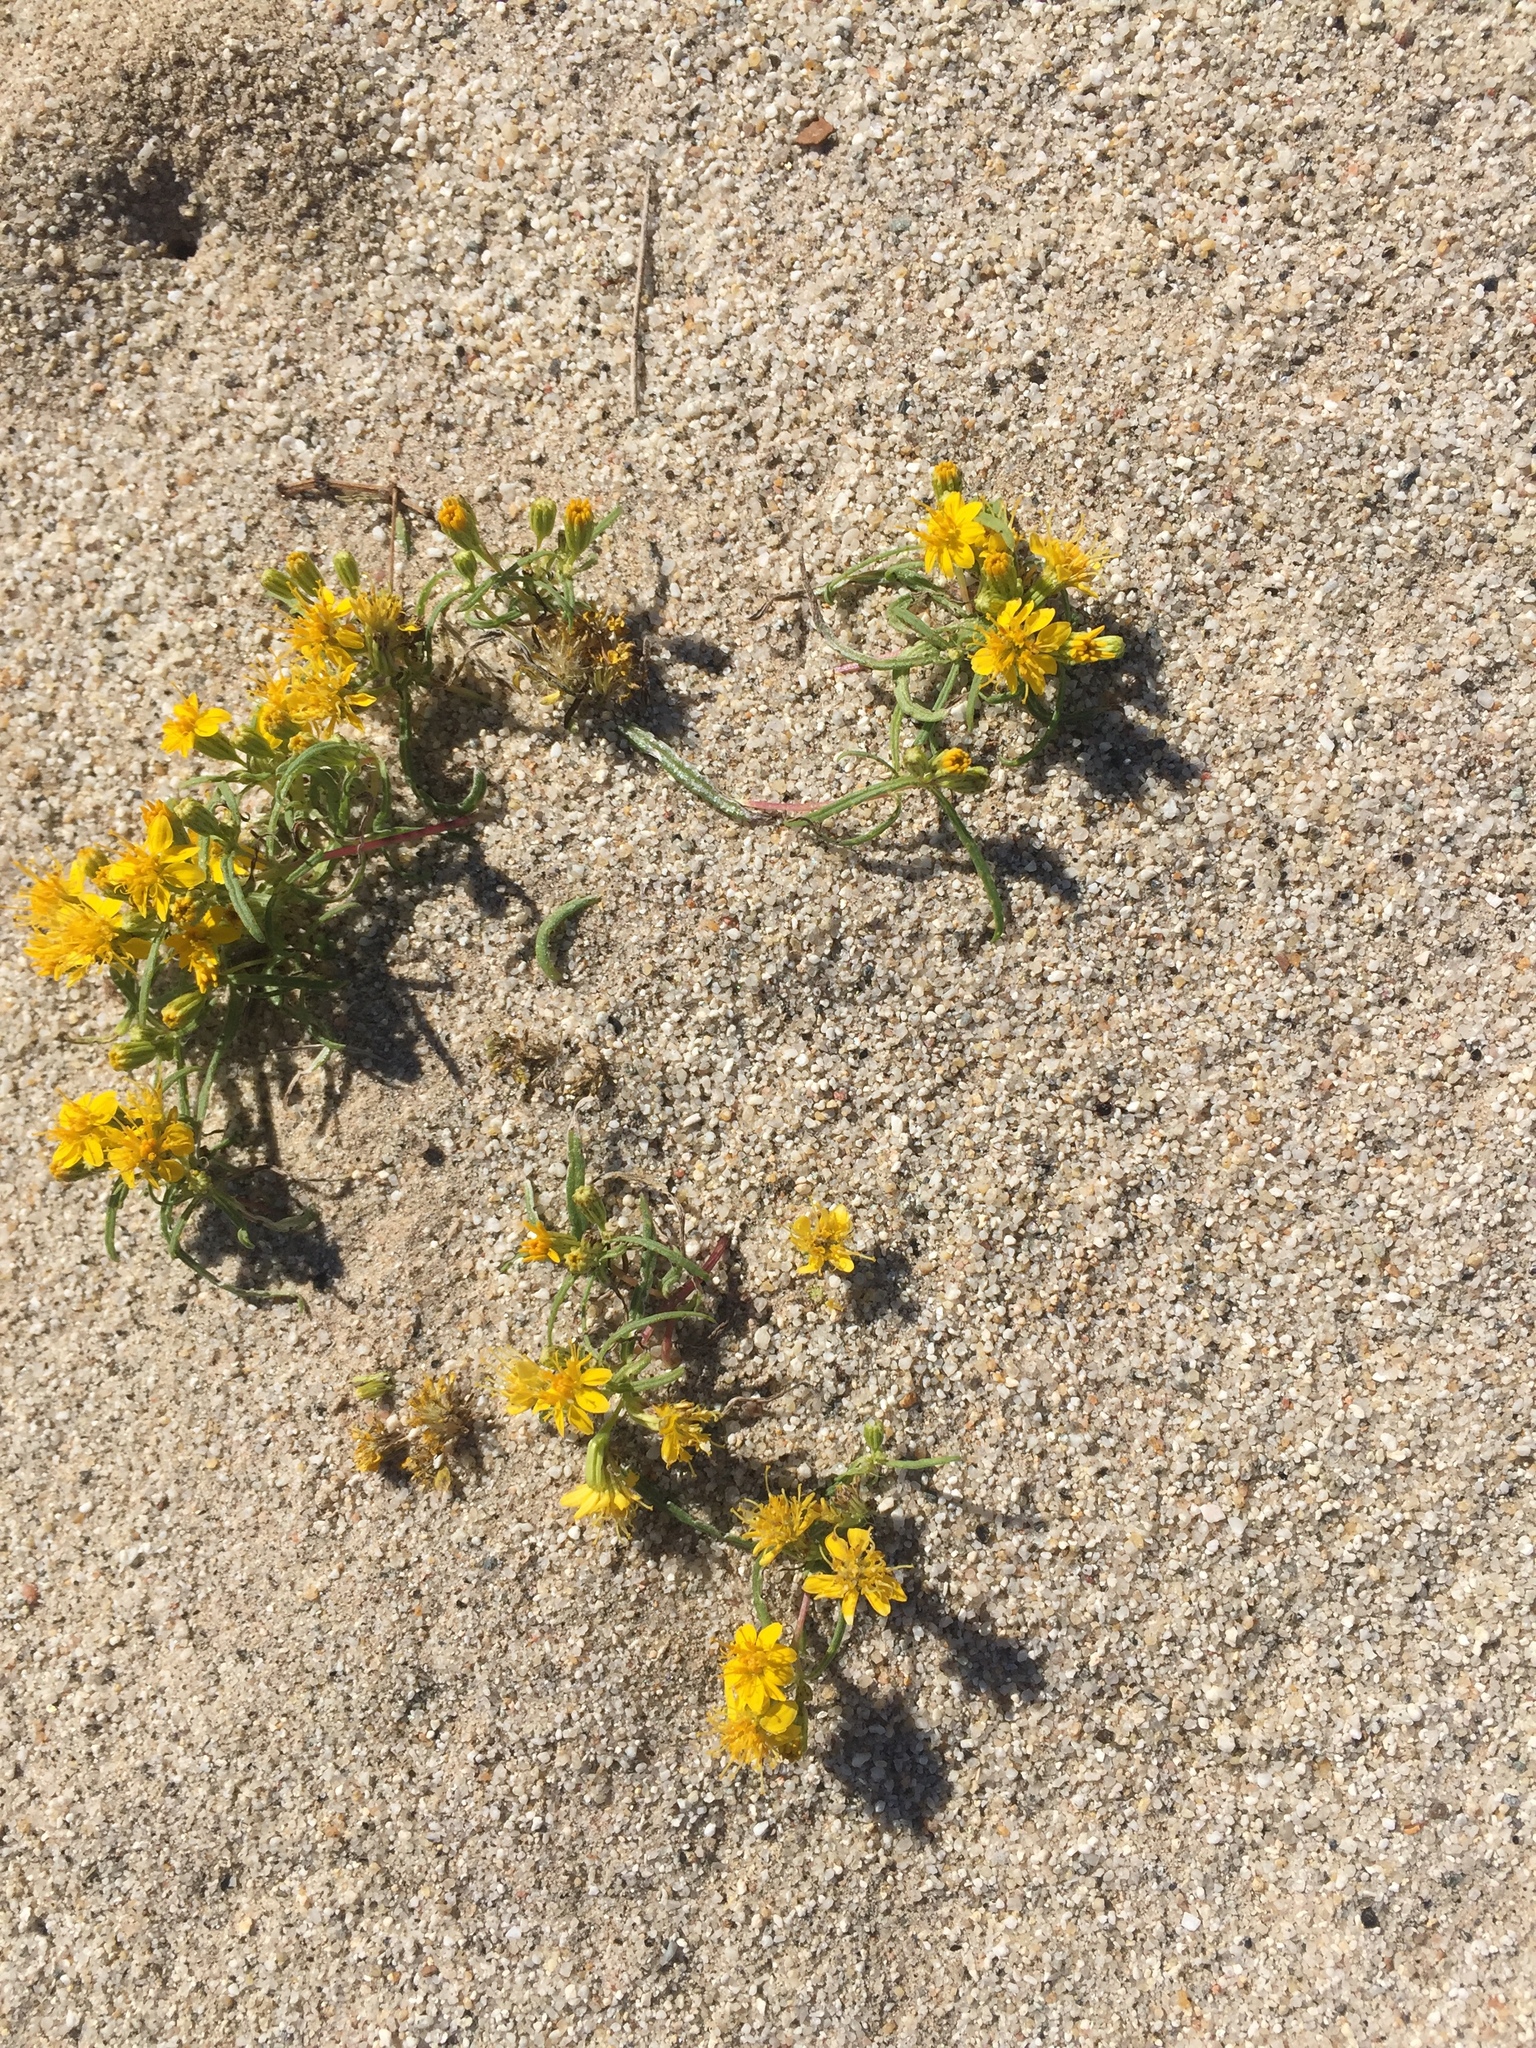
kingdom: Plantae
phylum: Tracheophyta
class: Magnoliopsida
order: Asterales
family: Asteraceae
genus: Pectis
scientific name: Pectis papposa
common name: Many-bristle chinchweed
